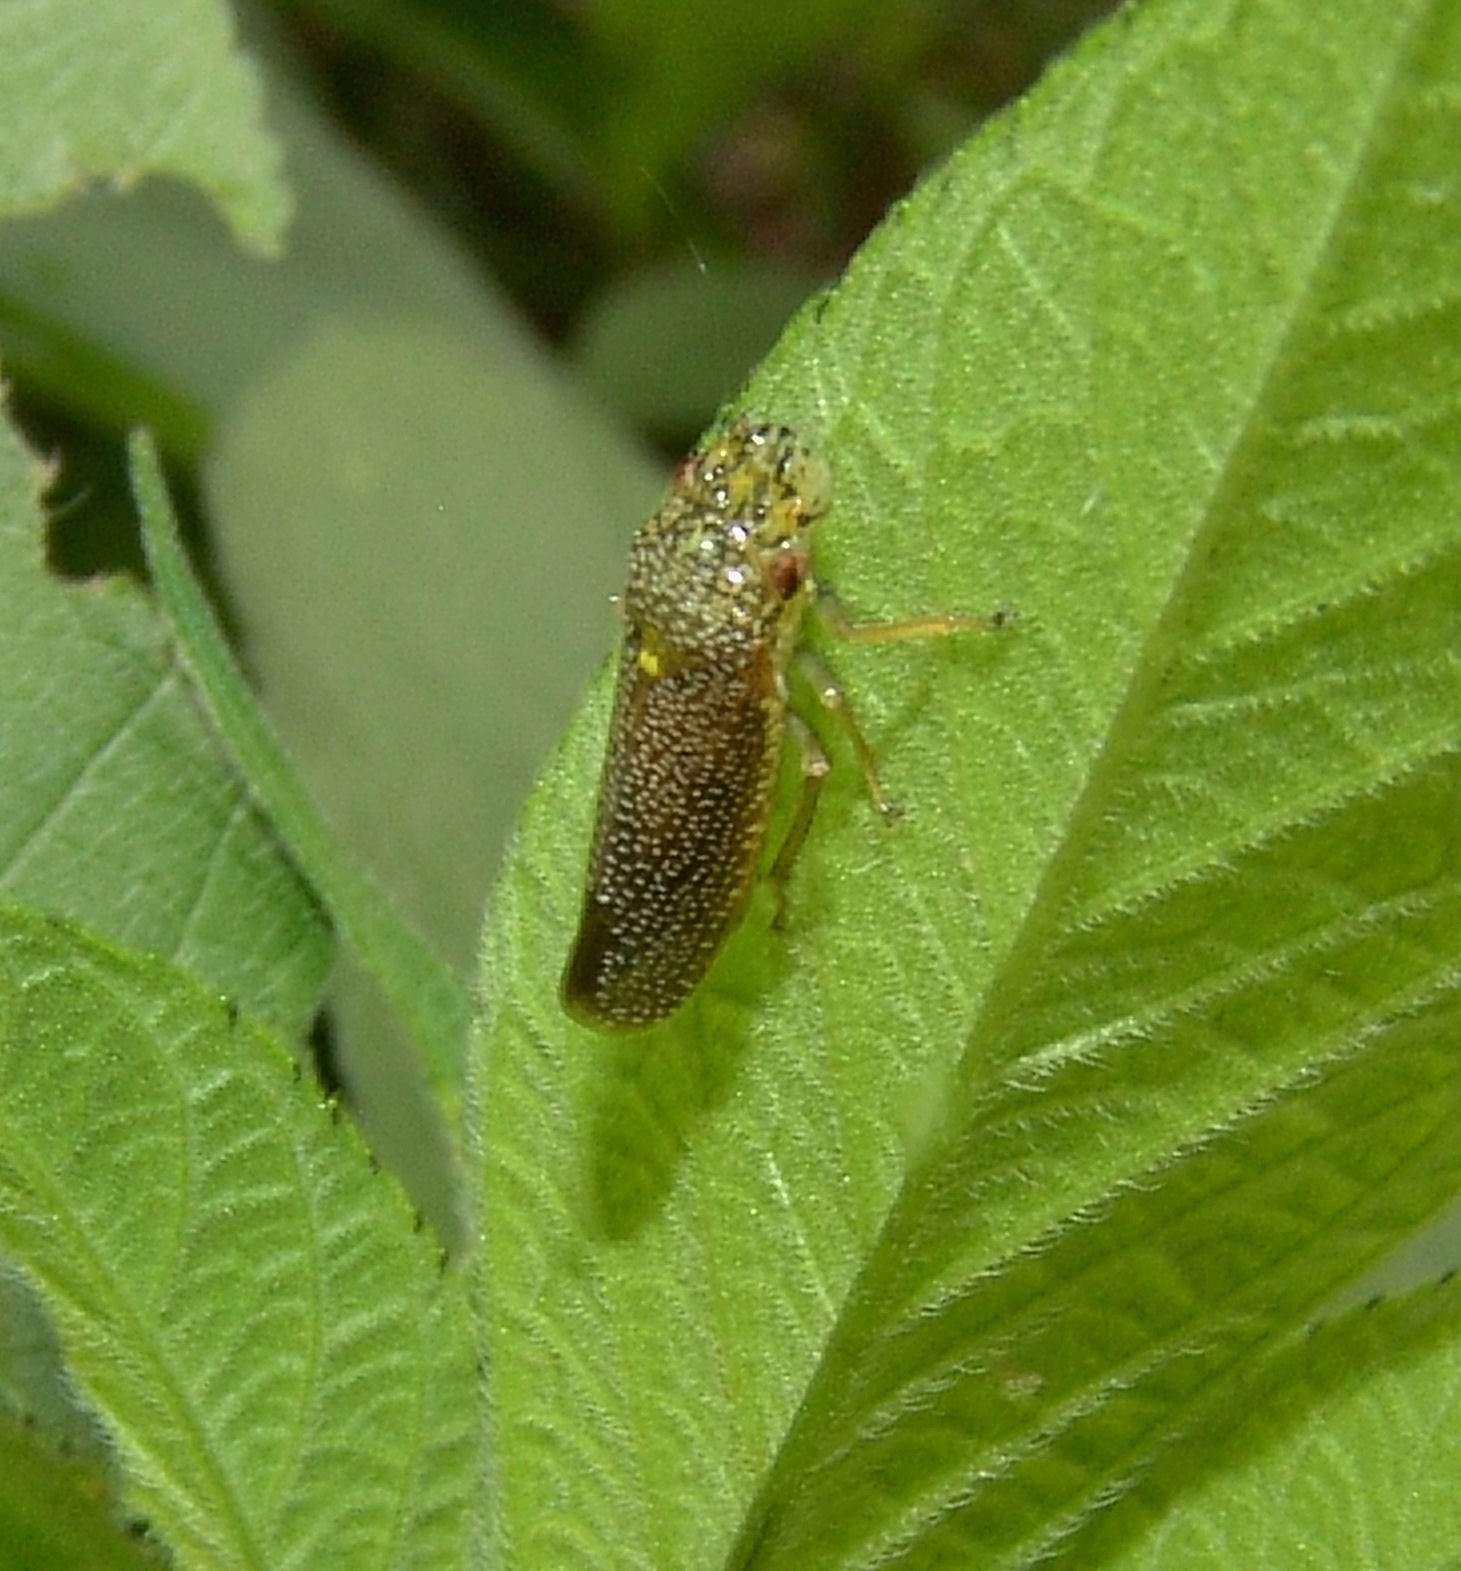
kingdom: Animalia
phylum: Arthropoda
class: Insecta
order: Hemiptera
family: Cicadellidae
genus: Paraulacizes
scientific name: Paraulacizes irrorata
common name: Speckled sharpshooter
